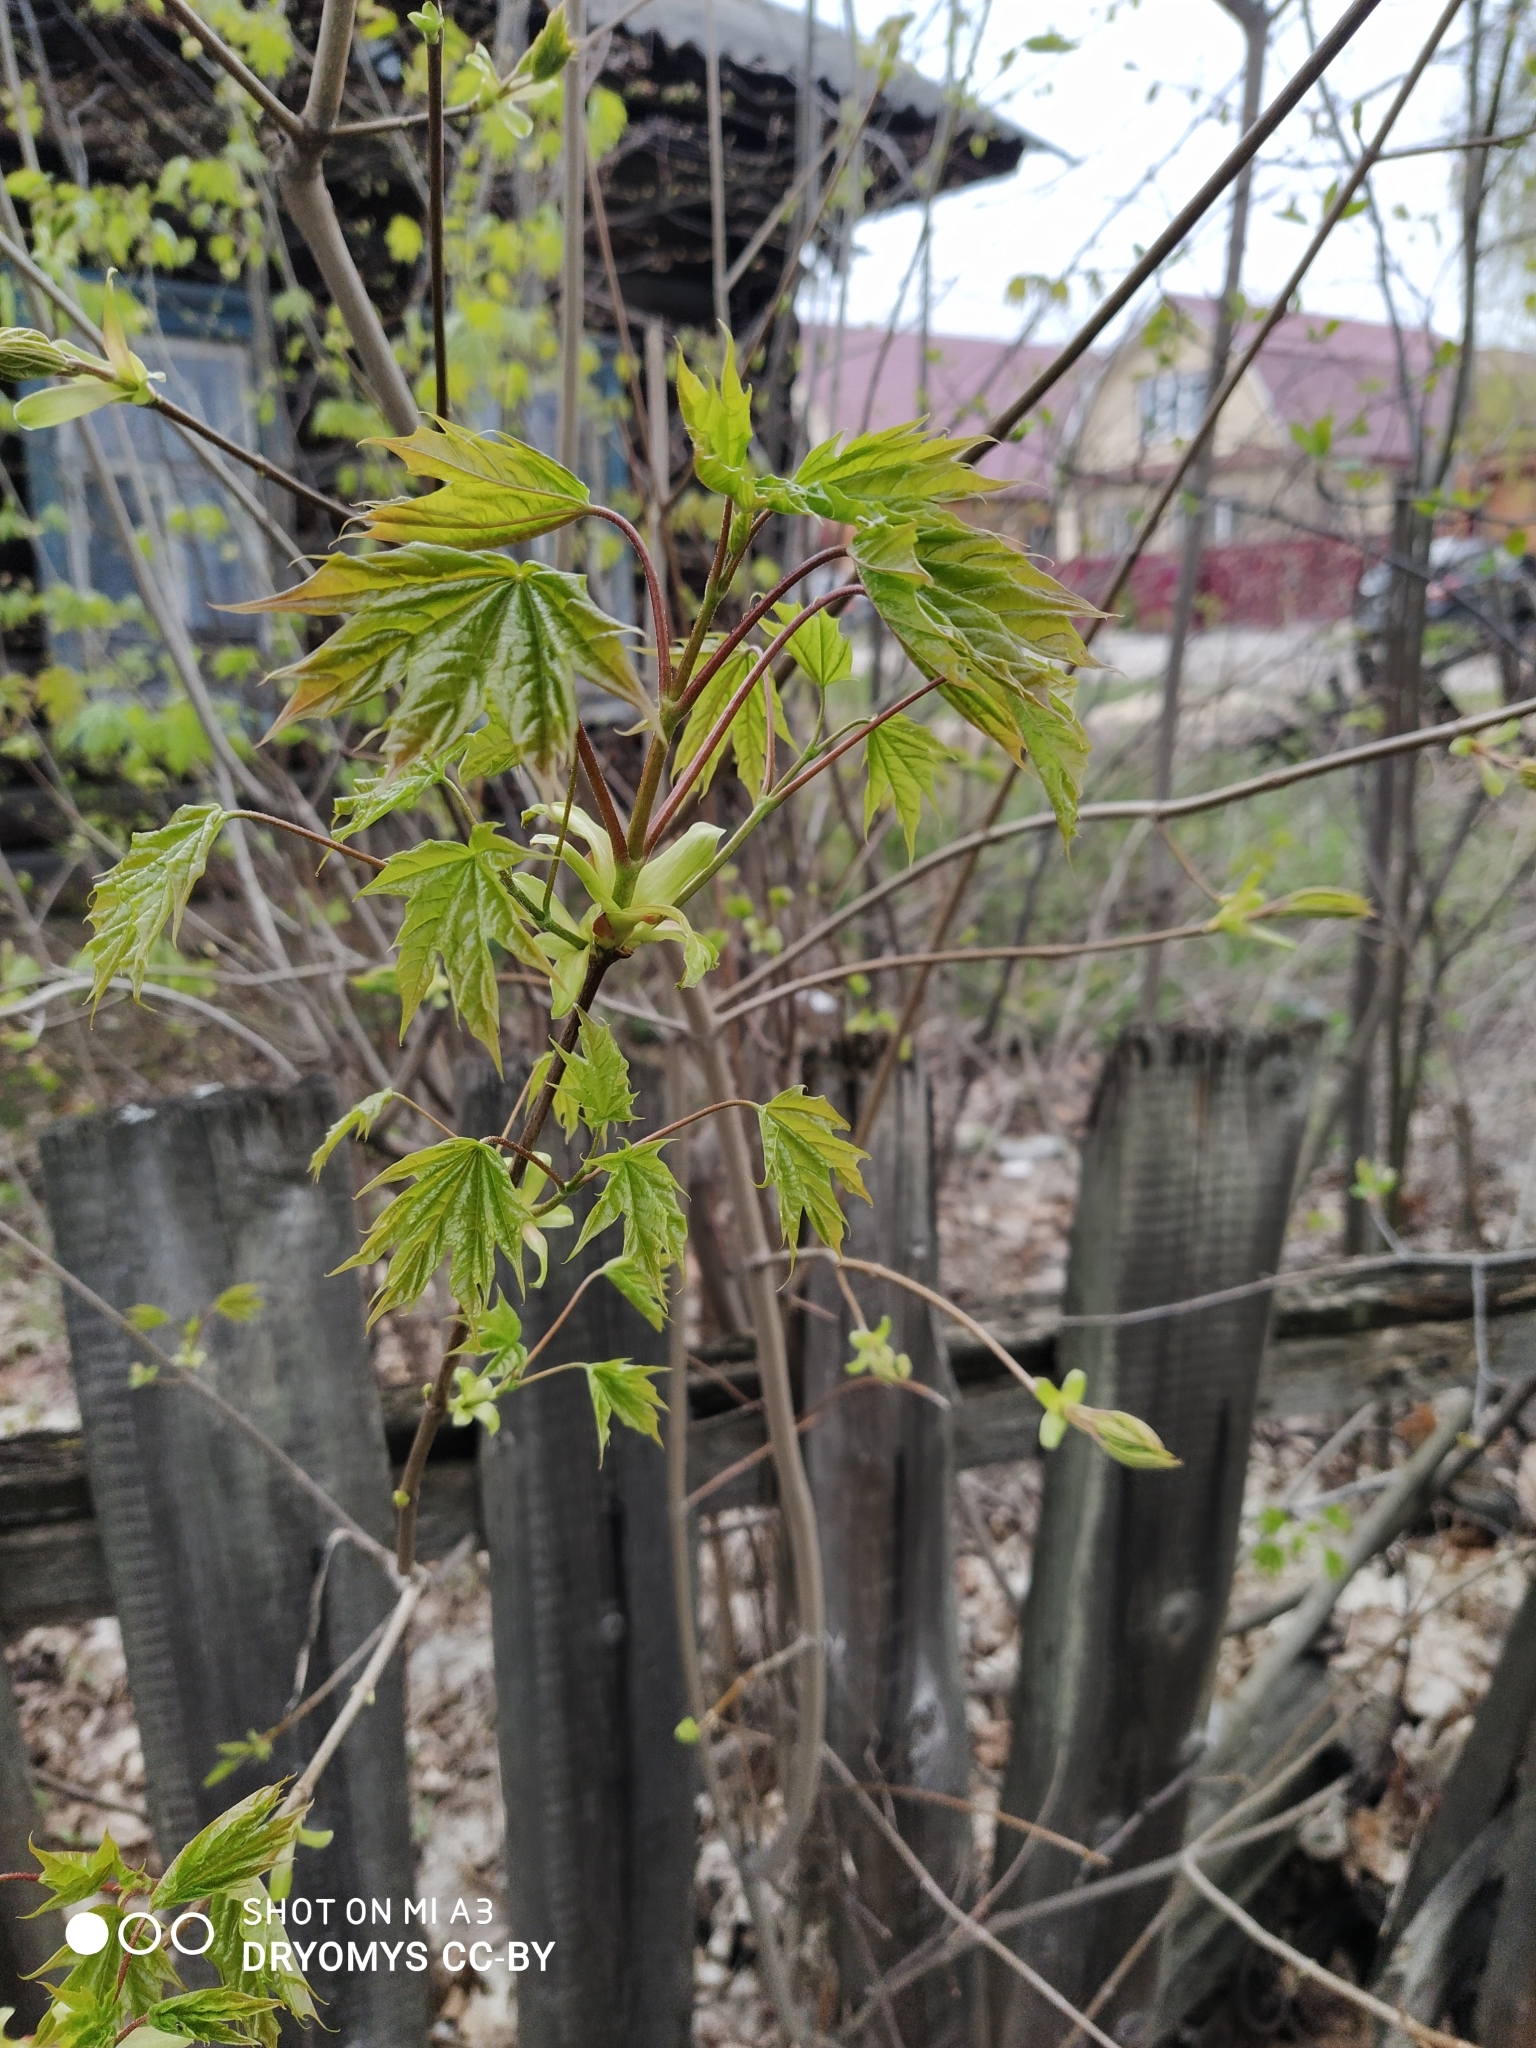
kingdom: Plantae
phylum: Tracheophyta
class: Magnoliopsida
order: Sapindales
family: Sapindaceae
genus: Acer
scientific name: Acer platanoides
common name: Norway maple
